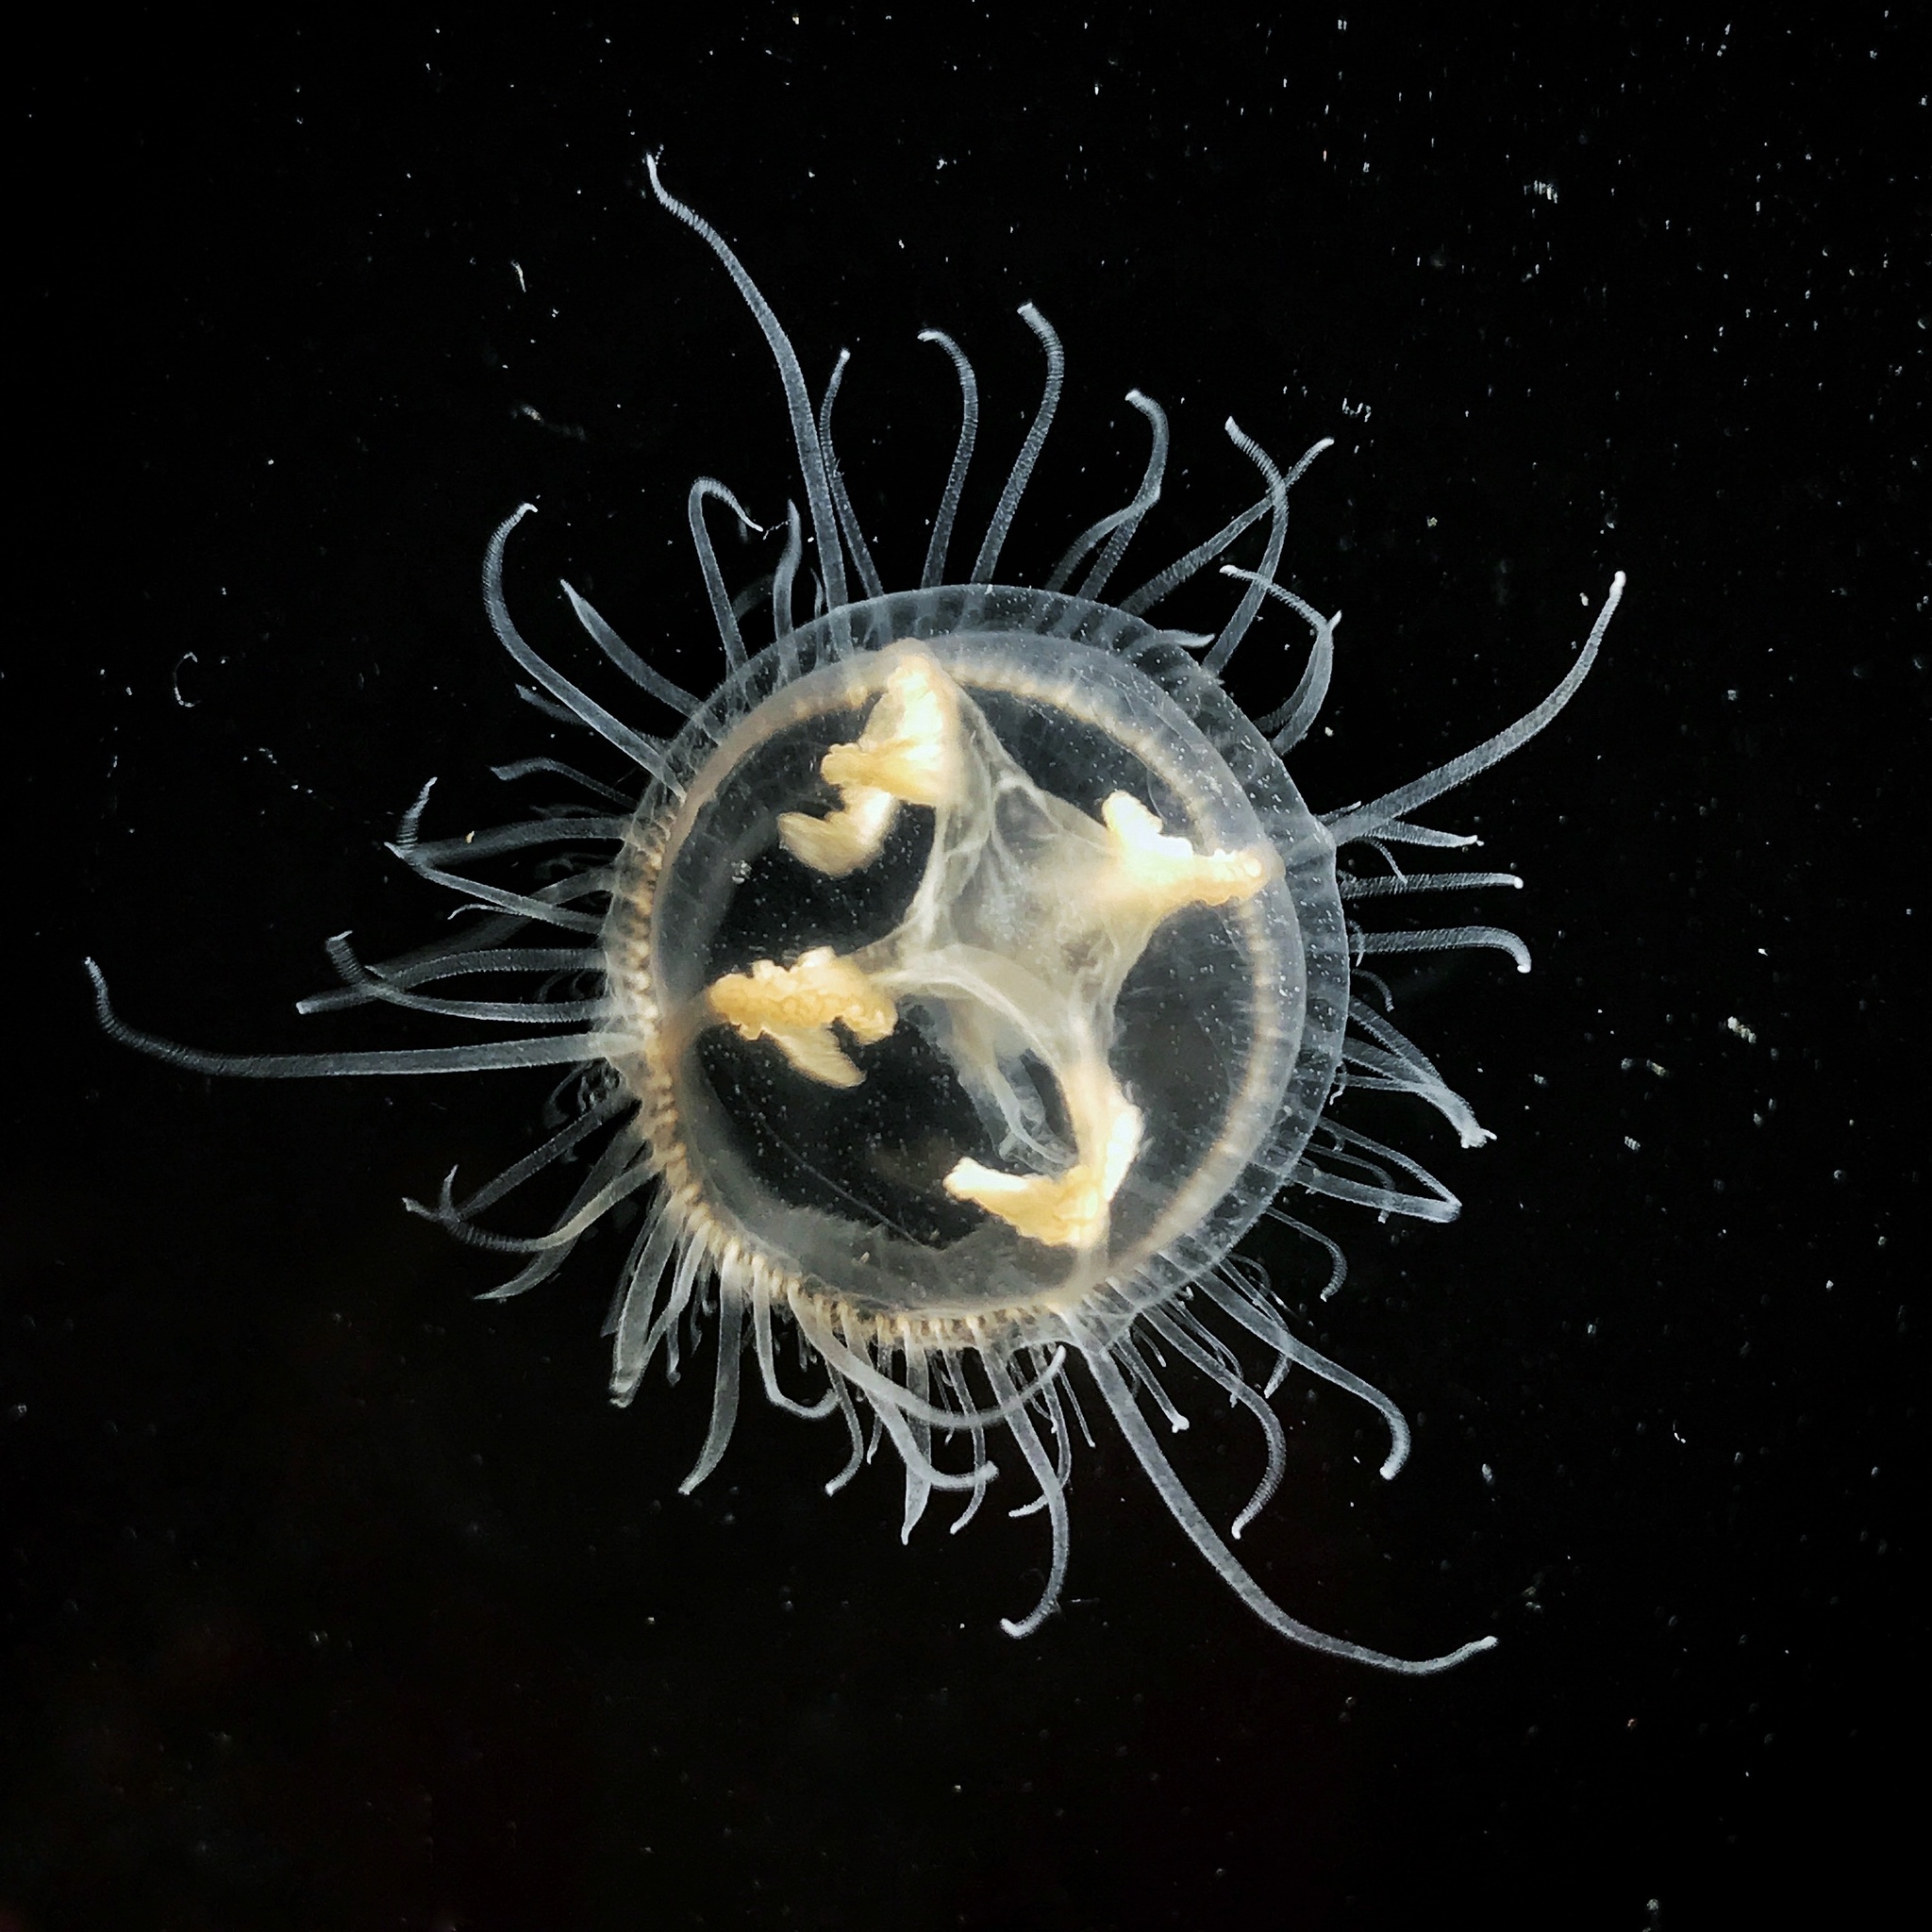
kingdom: Animalia
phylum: Cnidaria
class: Hydrozoa
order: Limnomedusae
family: Olindiidae
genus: Craspedacusta
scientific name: Craspedacusta sowerbii
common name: Freshwater jellyfish
